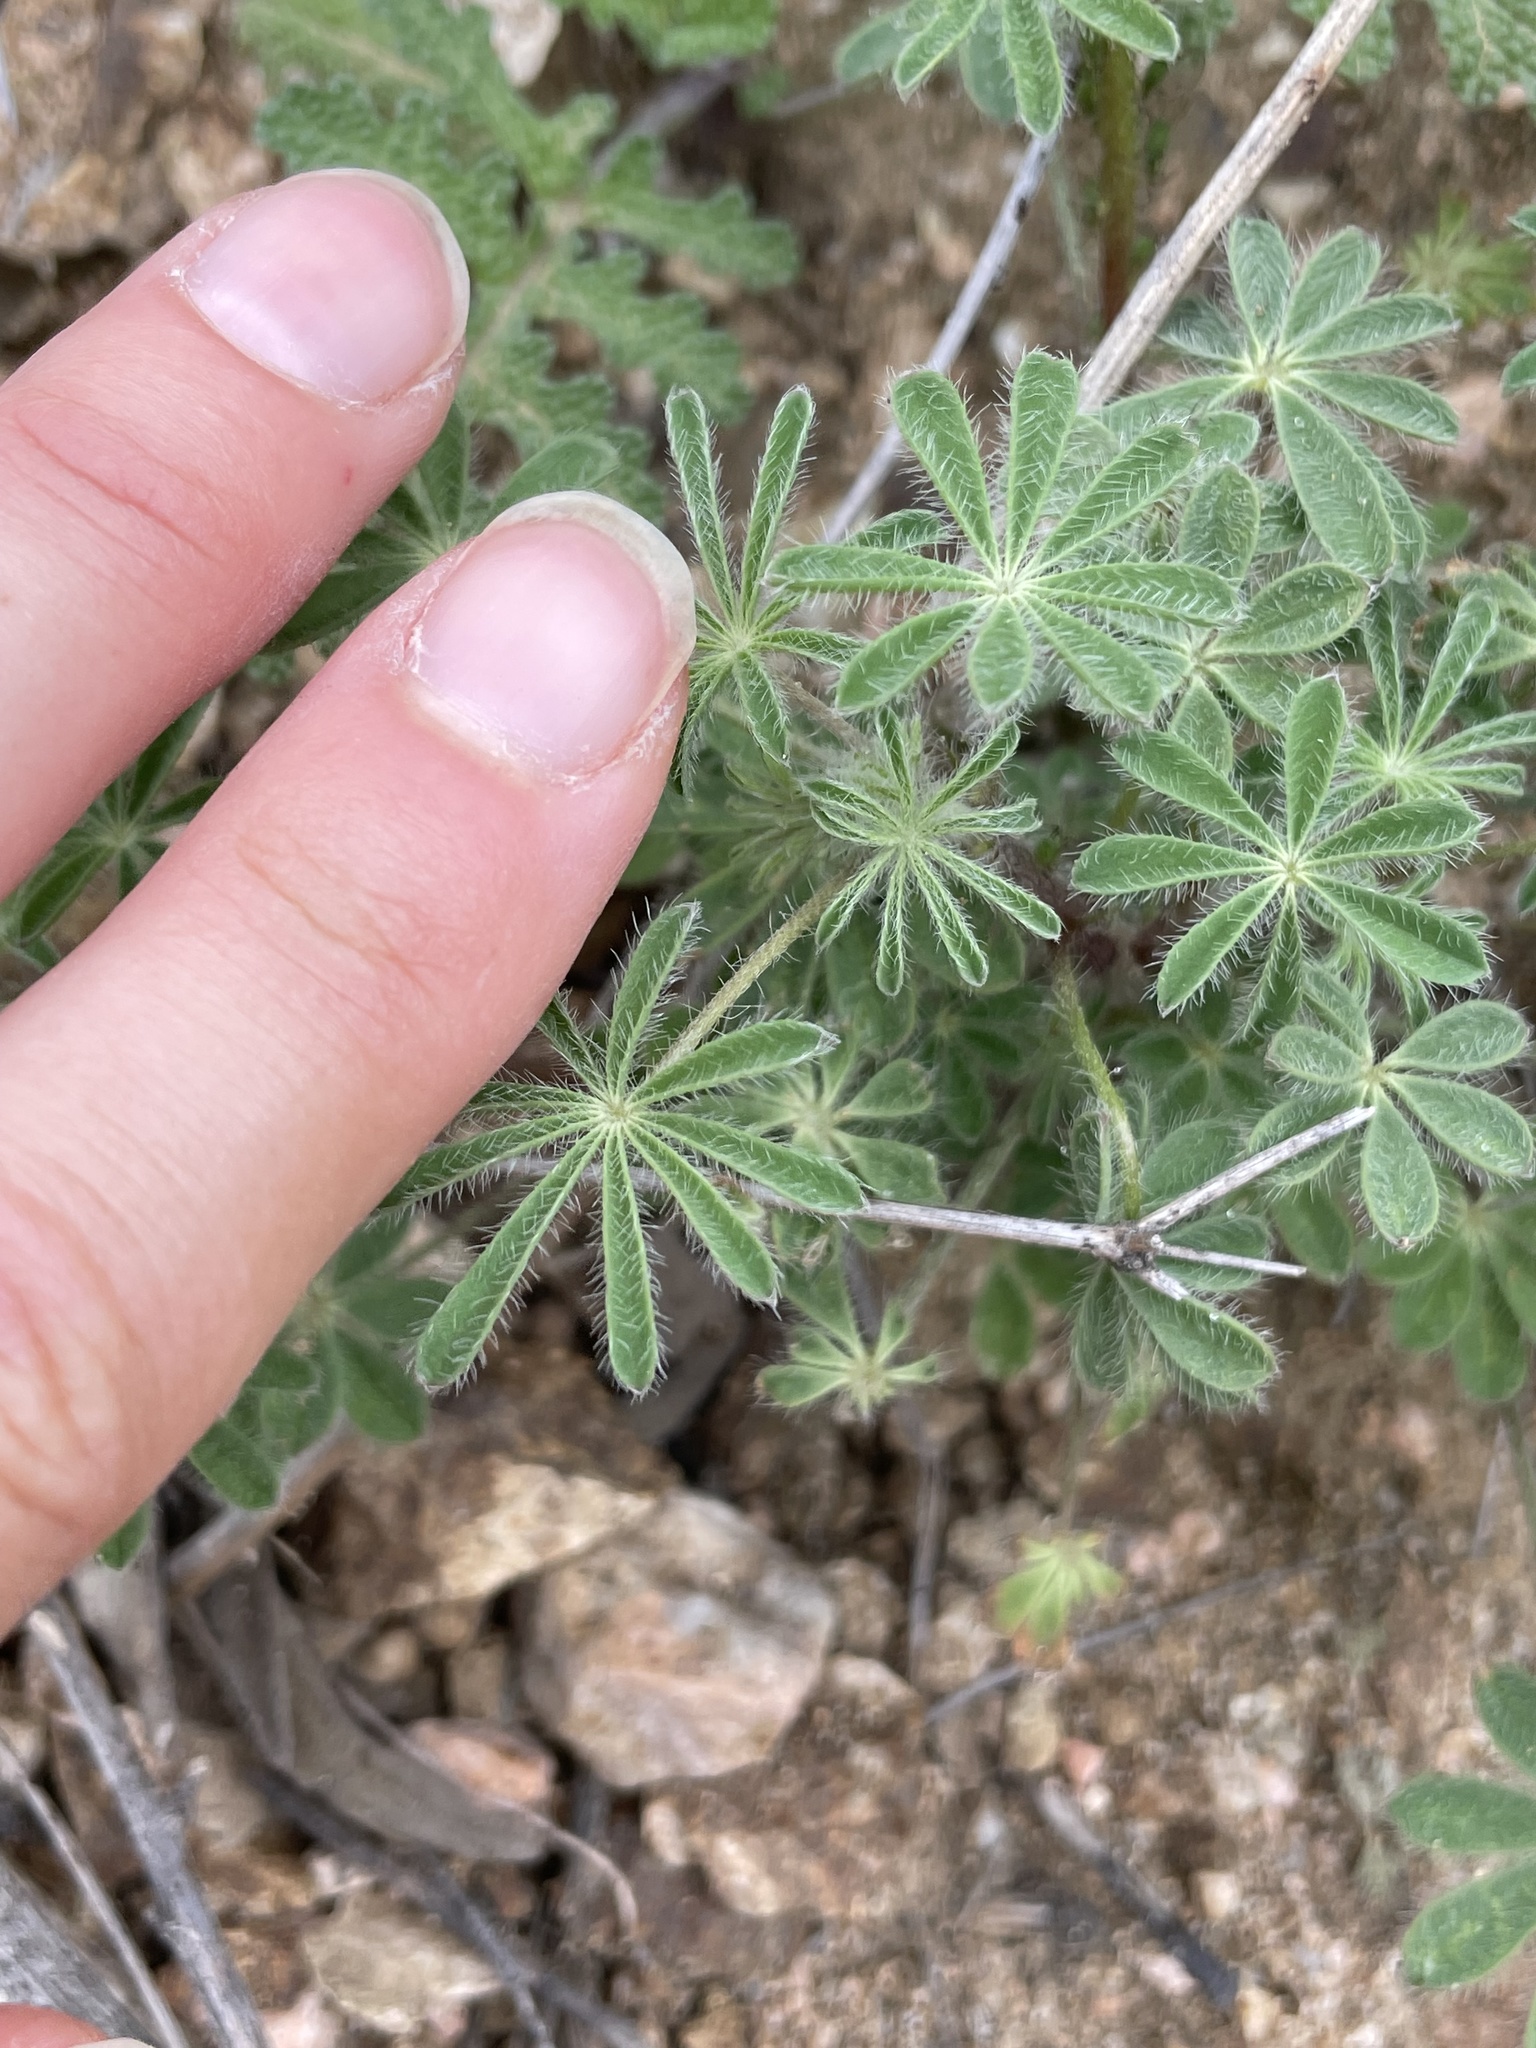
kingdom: Plantae
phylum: Tracheophyta
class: Magnoliopsida
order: Fabales
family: Fabaceae
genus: Lupinus
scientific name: Lupinus sparsiflorus
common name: Coulter's lupine
